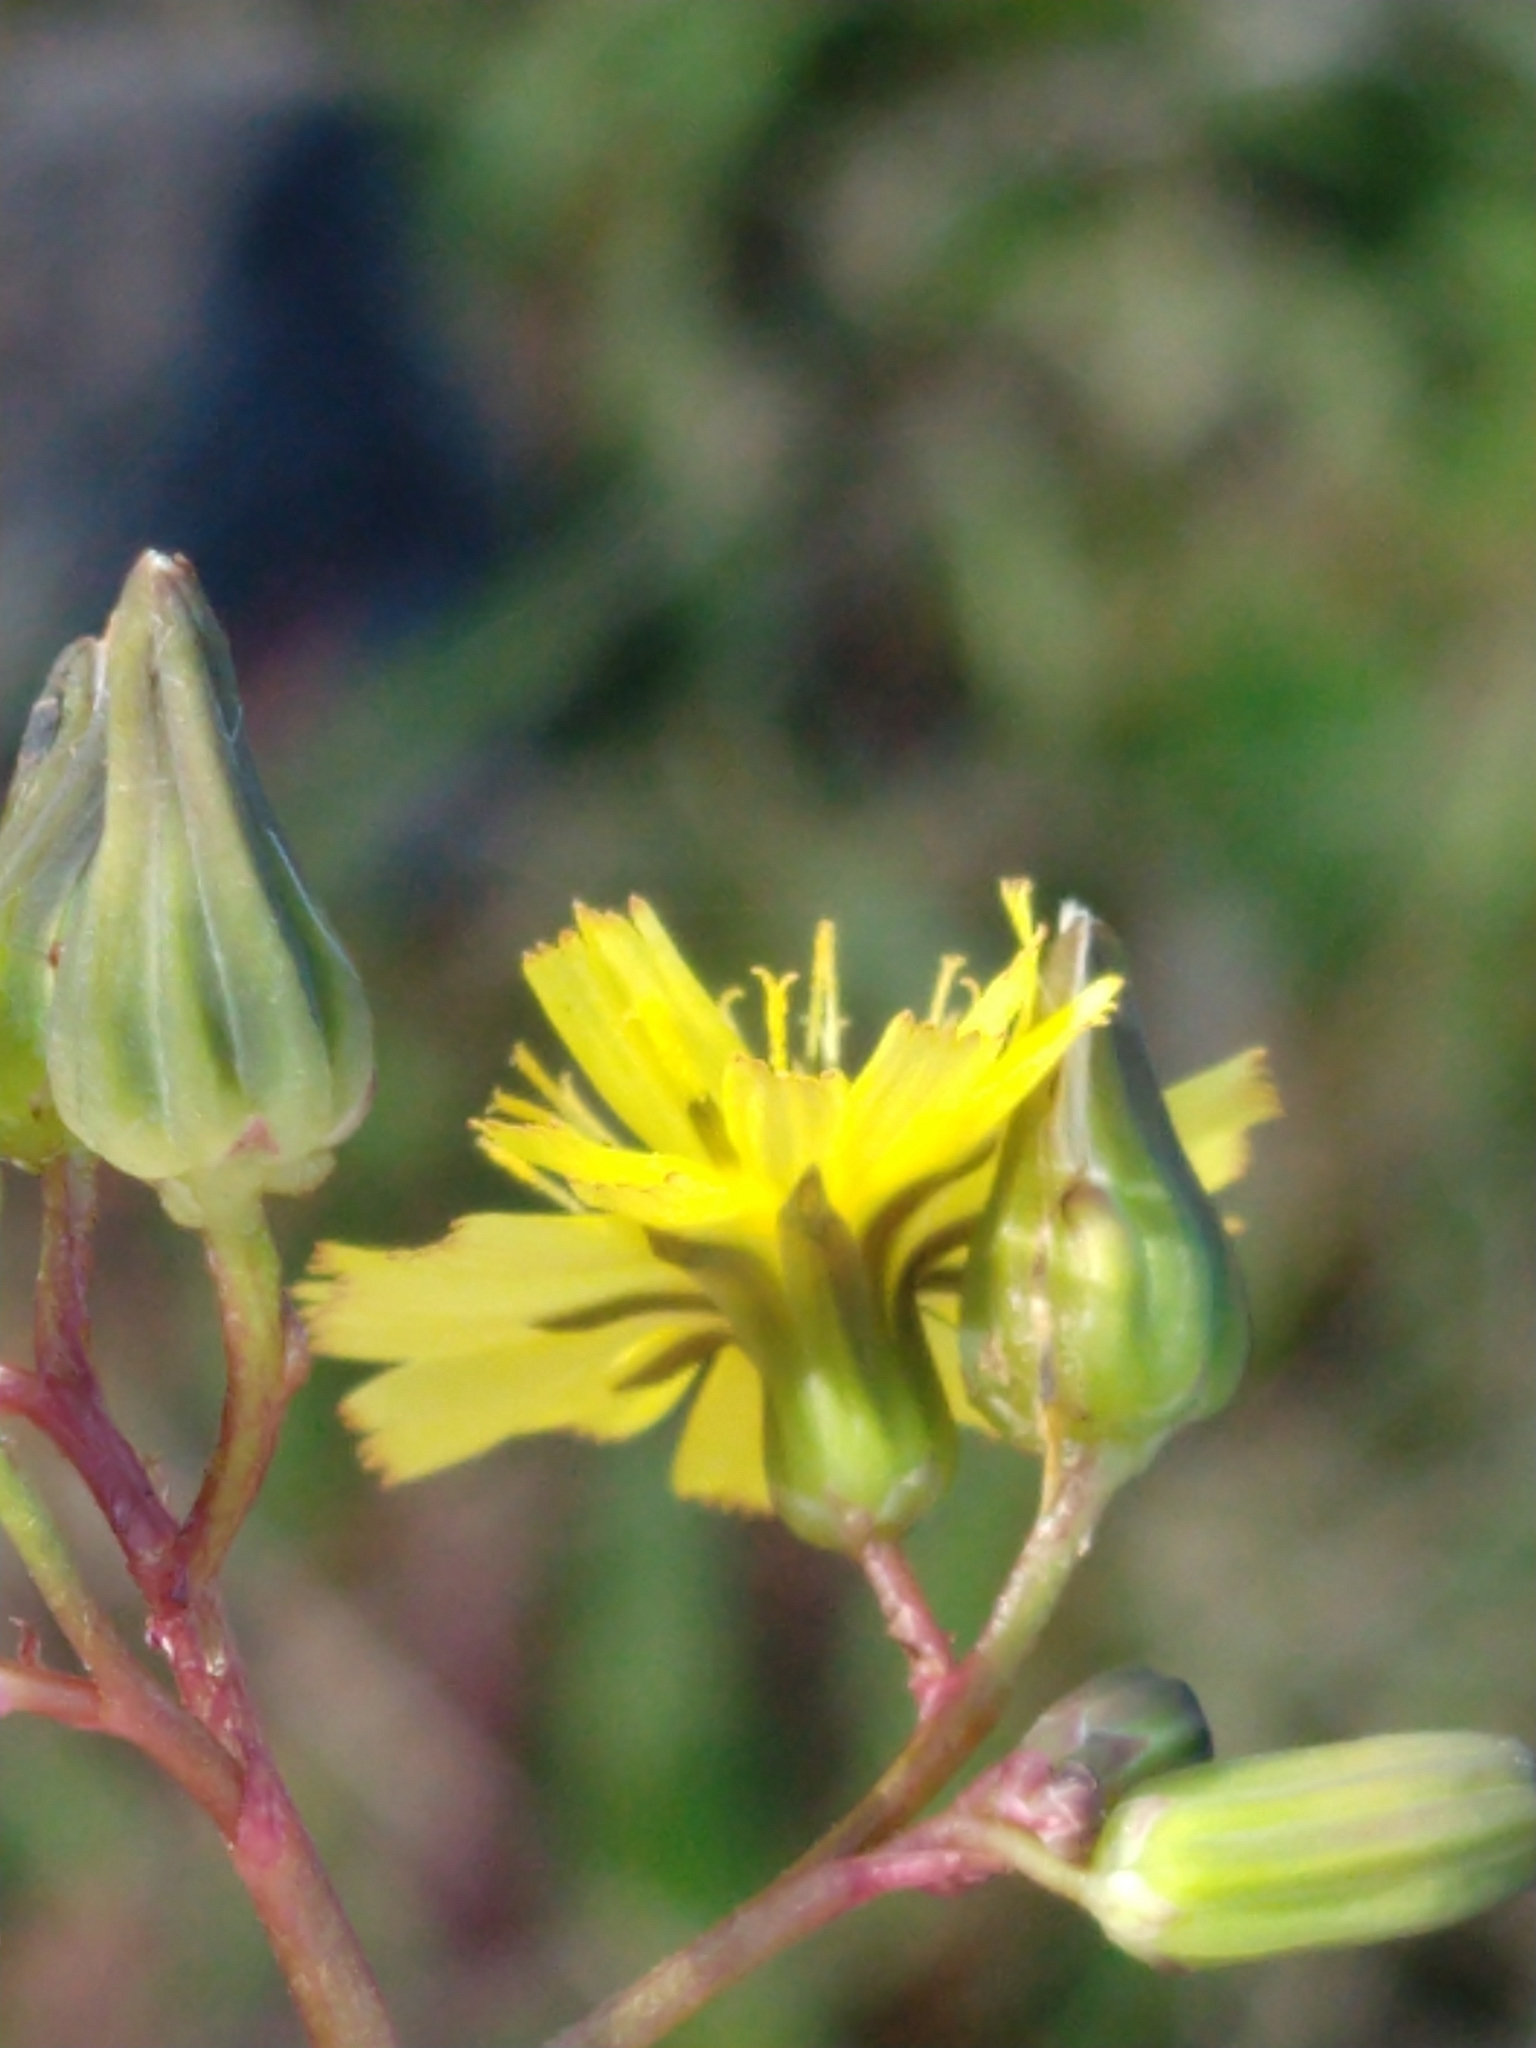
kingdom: Plantae
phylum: Tracheophyta
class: Magnoliopsida
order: Asterales
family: Asteraceae
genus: Youngia
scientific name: Youngia japonica
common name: Oriental false hawksbeard
